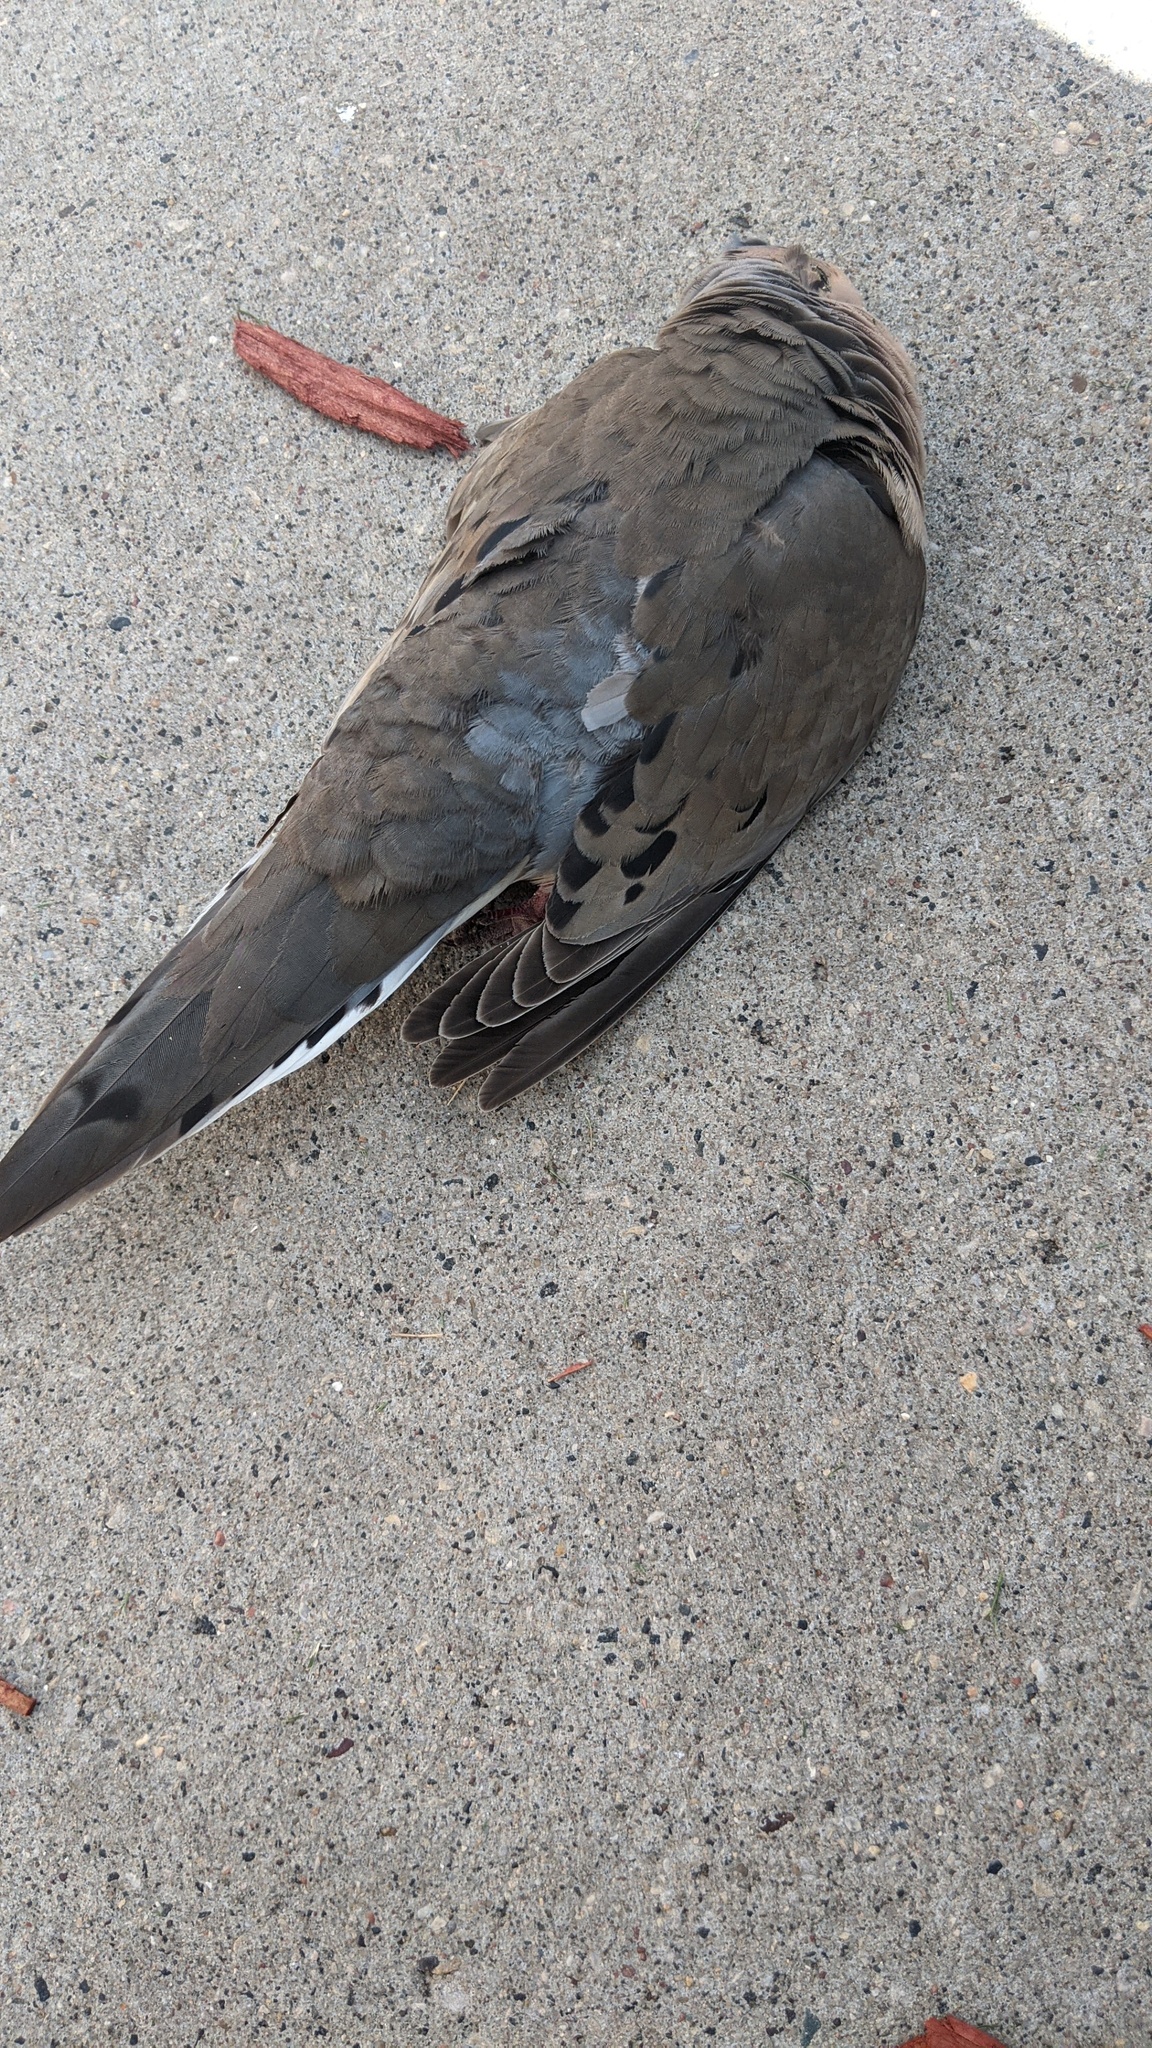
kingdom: Animalia
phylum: Chordata
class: Aves
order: Columbiformes
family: Columbidae
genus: Zenaida
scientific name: Zenaida macroura
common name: Mourning dove
